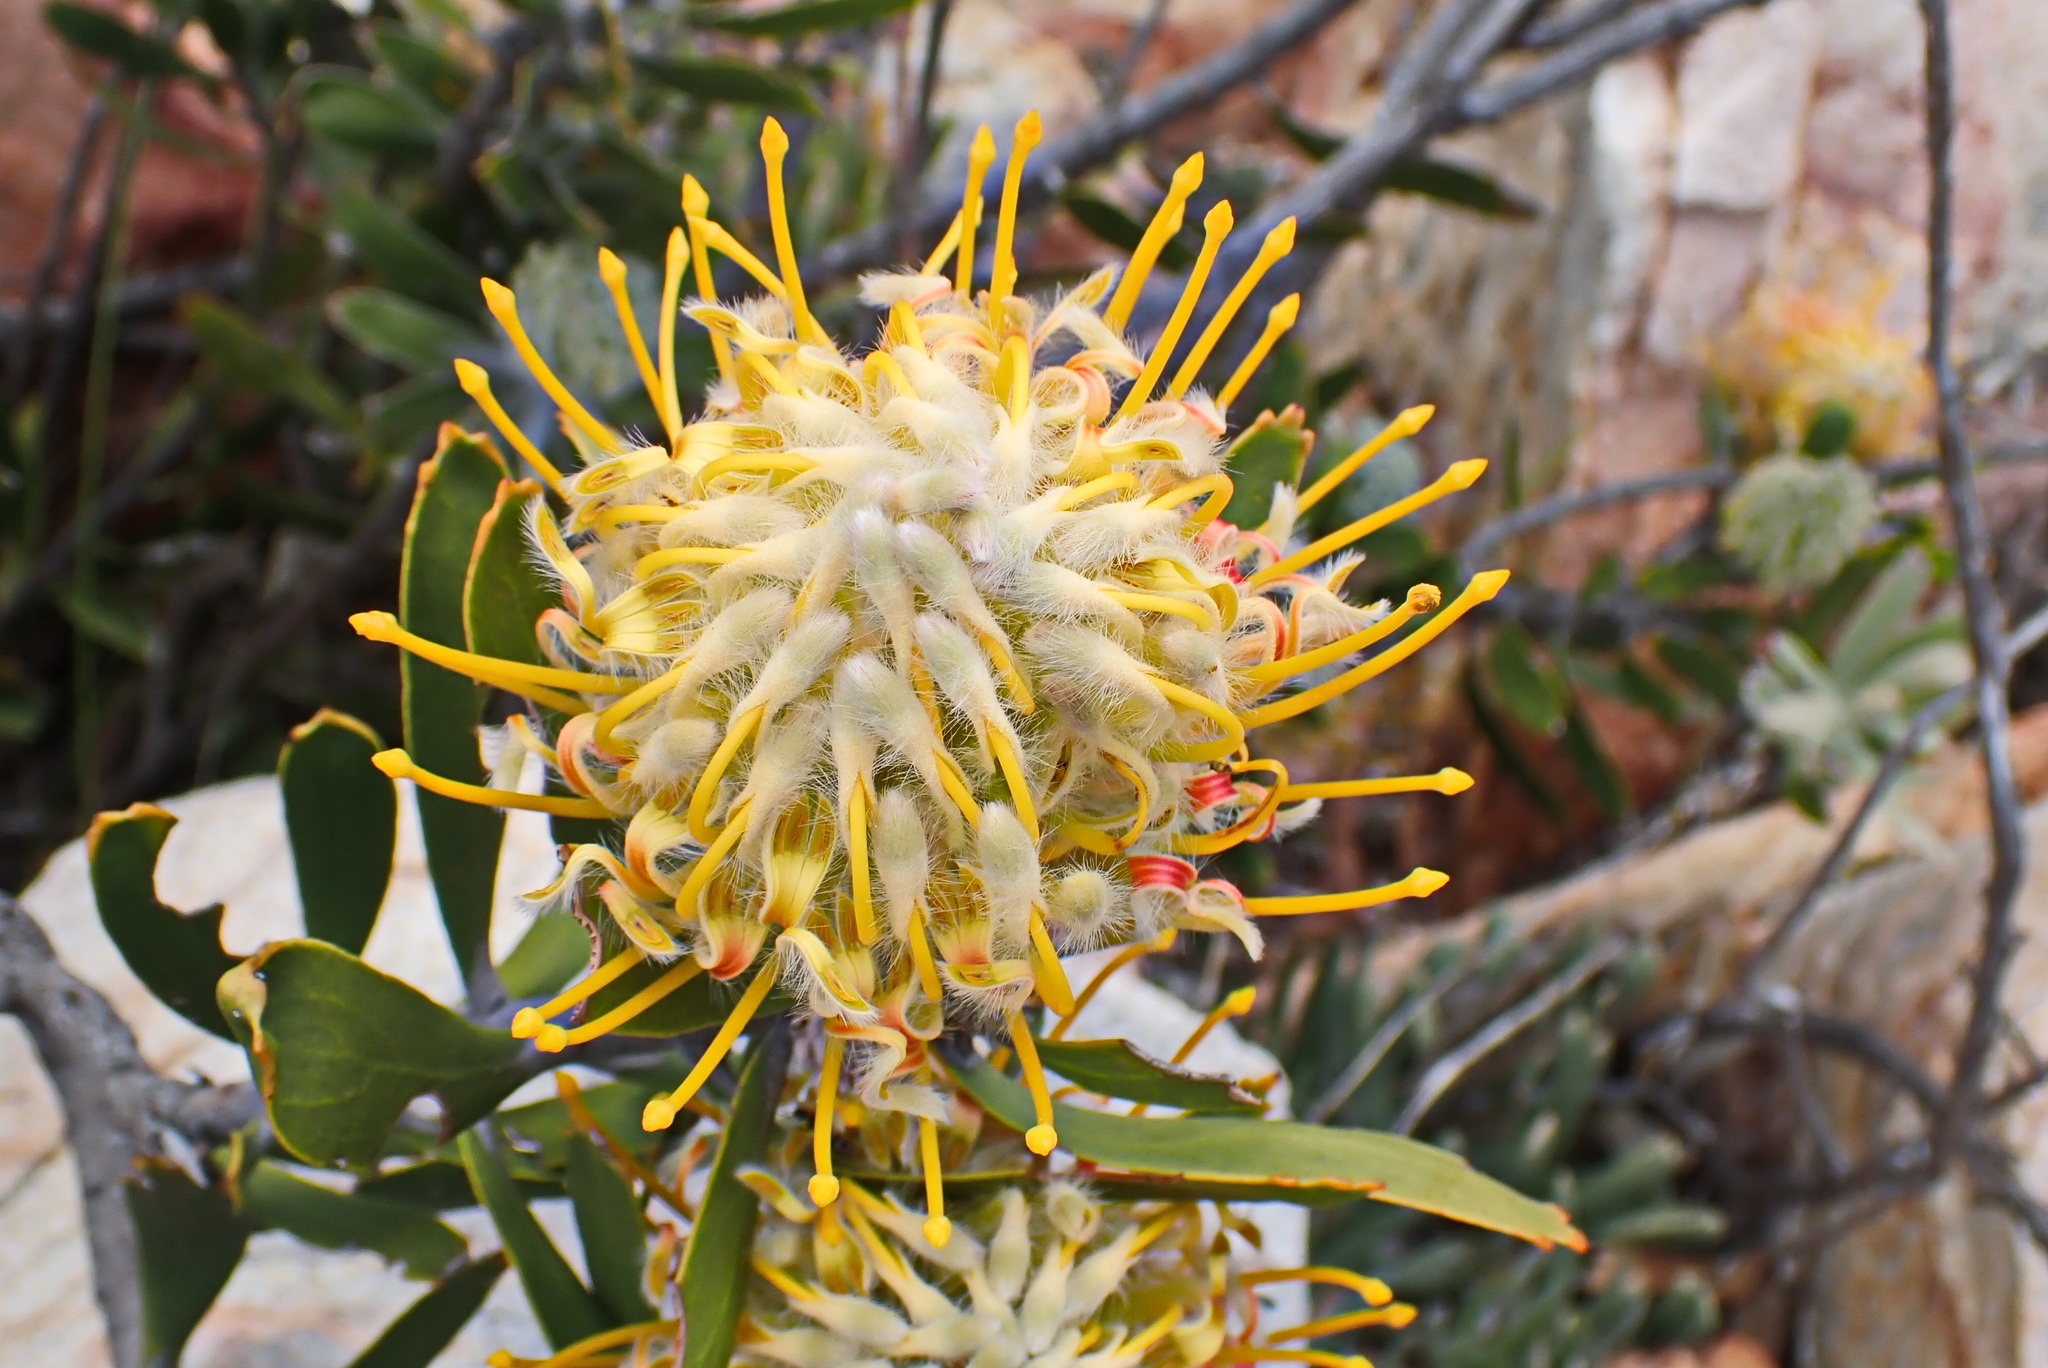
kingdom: Plantae
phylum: Tracheophyta
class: Magnoliopsida
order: Proteales
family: Proteaceae
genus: Leucospermum
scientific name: Leucospermum cuneiforme
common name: Common pincushion
